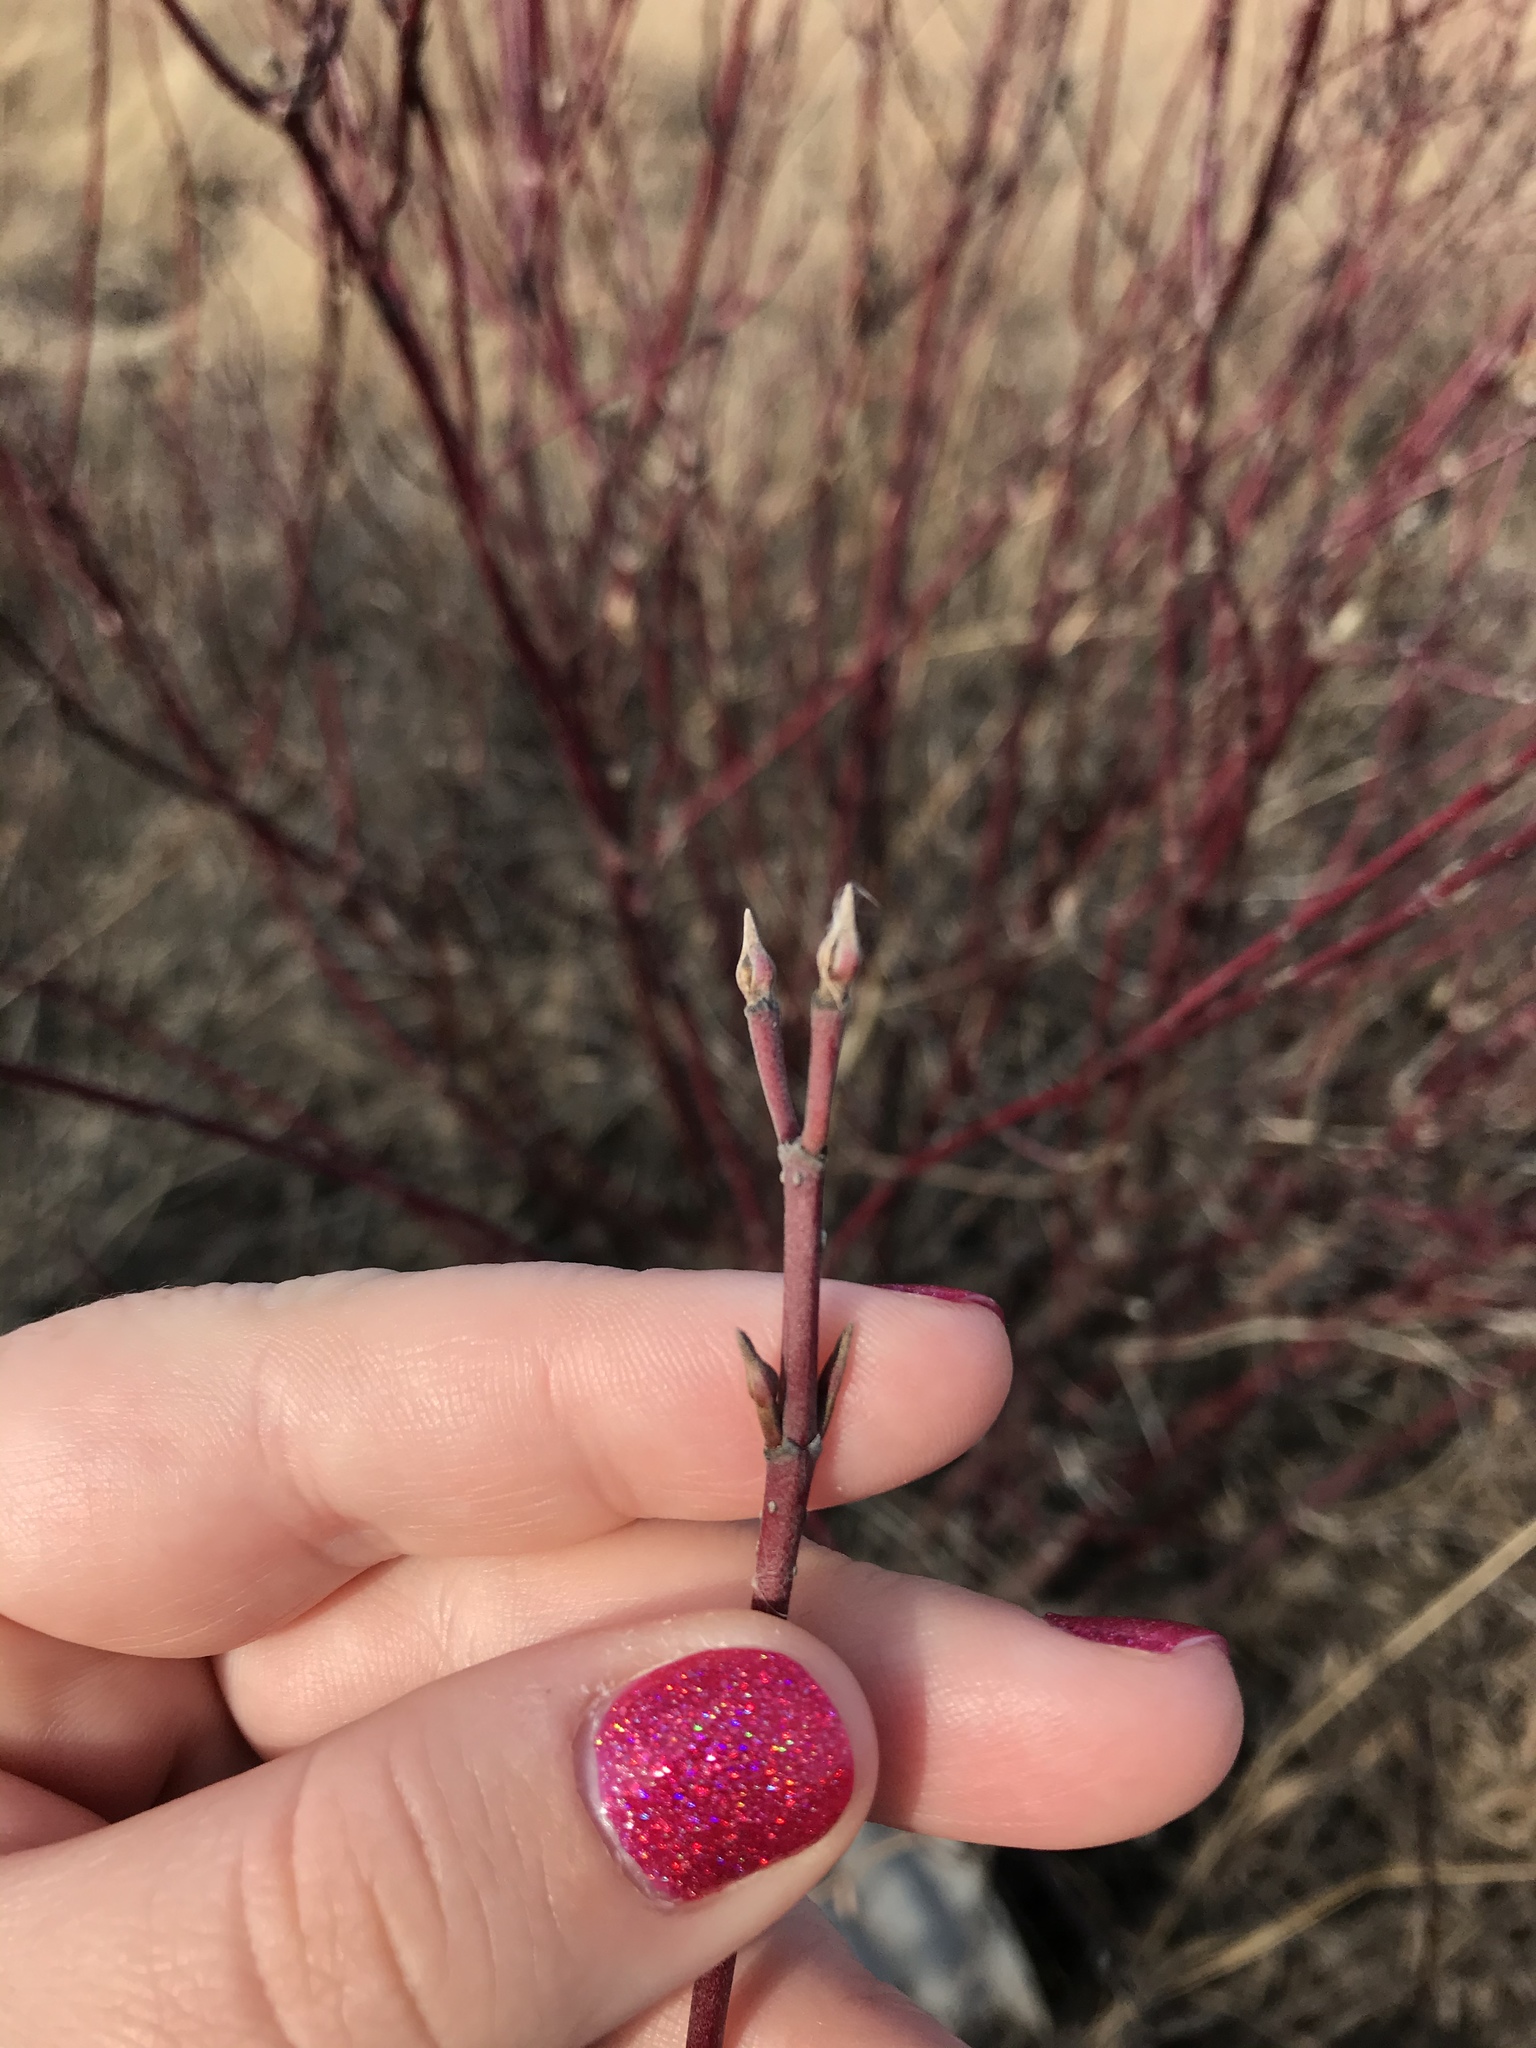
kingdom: Plantae
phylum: Tracheophyta
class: Magnoliopsida
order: Cornales
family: Cornaceae
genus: Cornus
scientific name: Cornus amomum
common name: Silky dogwood
